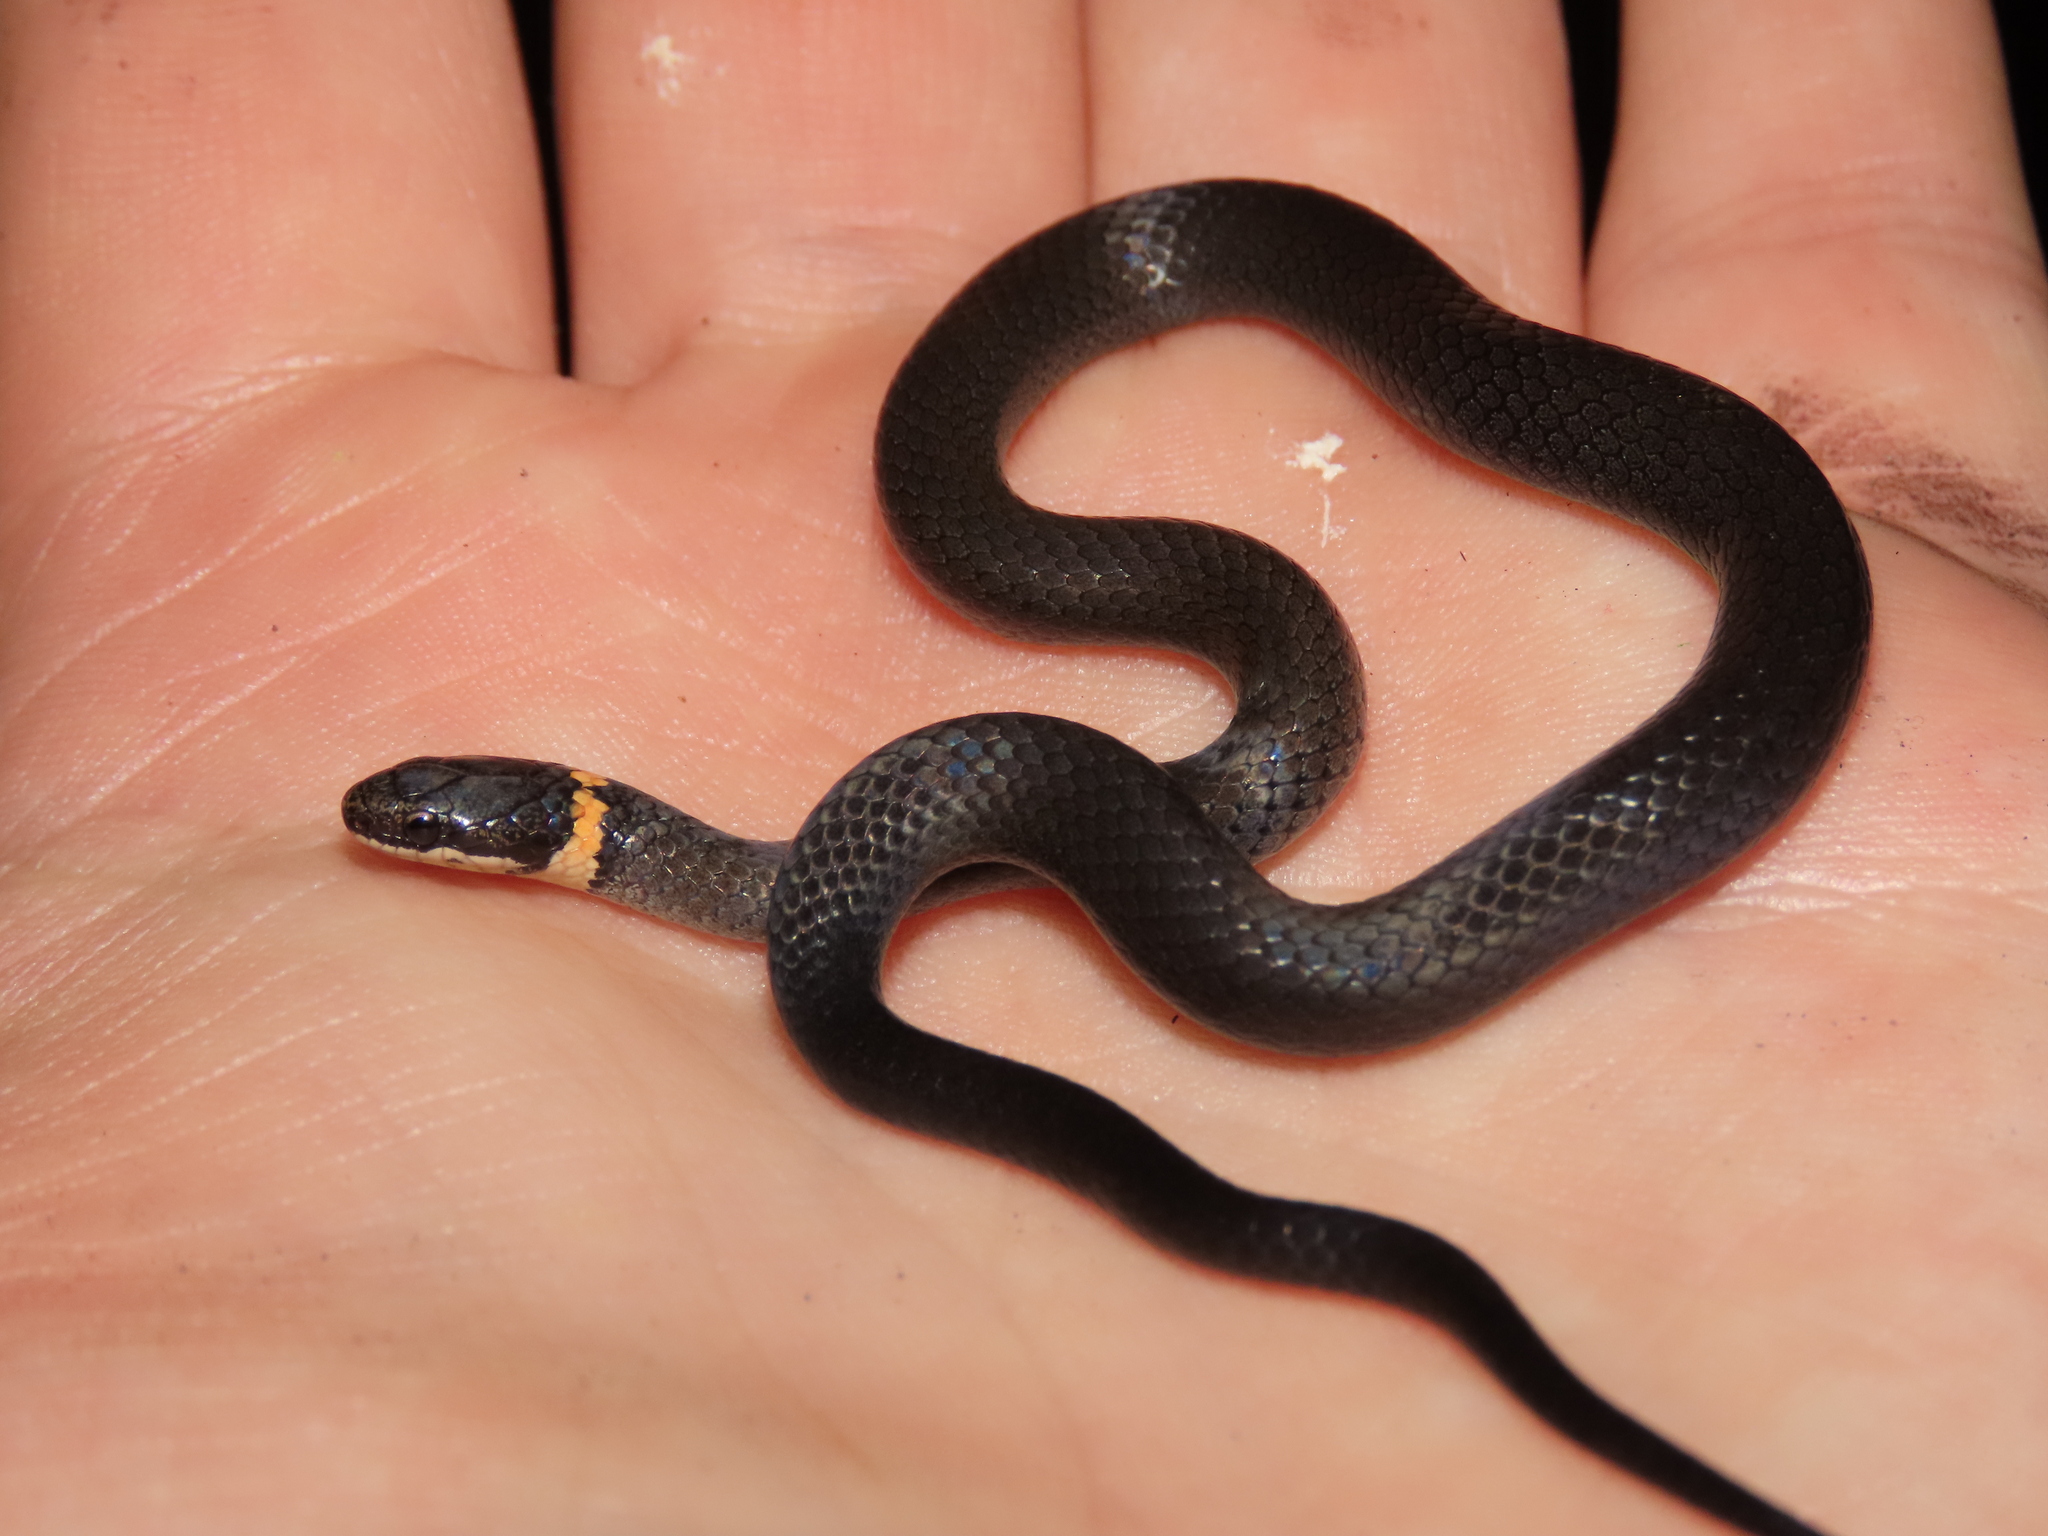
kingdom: Animalia
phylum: Chordata
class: Squamata
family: Colubridae
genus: Diadophis
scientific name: Diadophis punctatus
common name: Ringneck snake
